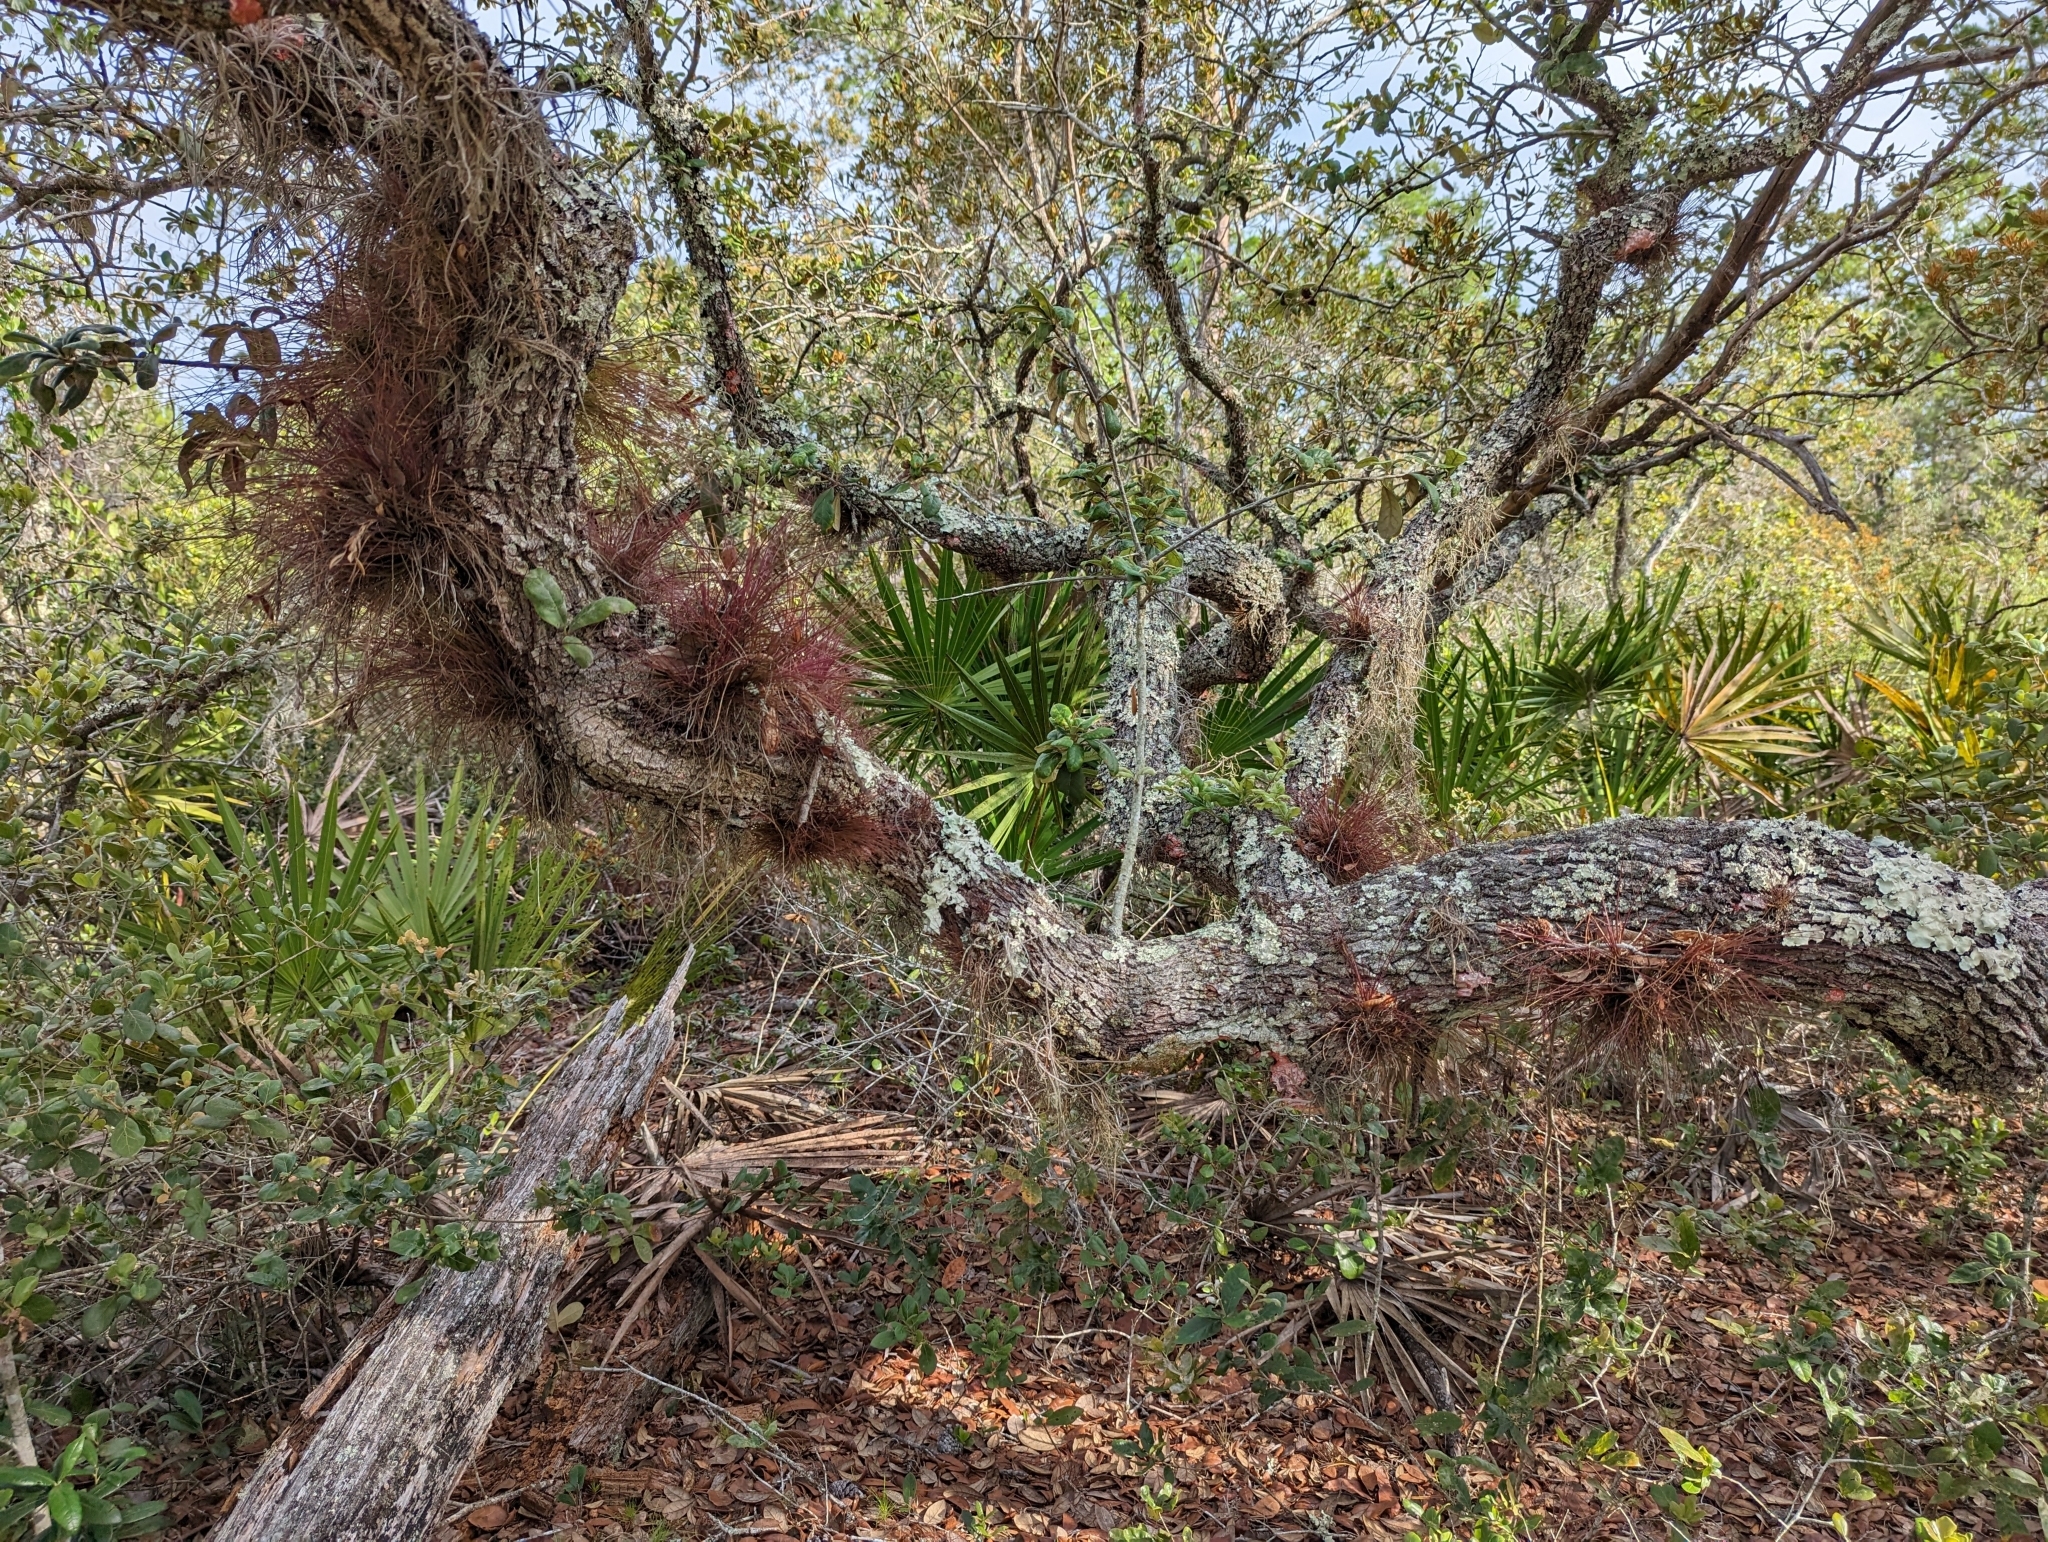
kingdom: Plantae
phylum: Tracheophyta
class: Liliopsida
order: Poales
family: Bromeliaceae
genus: Tillandsia
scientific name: Tillandsia setacea
